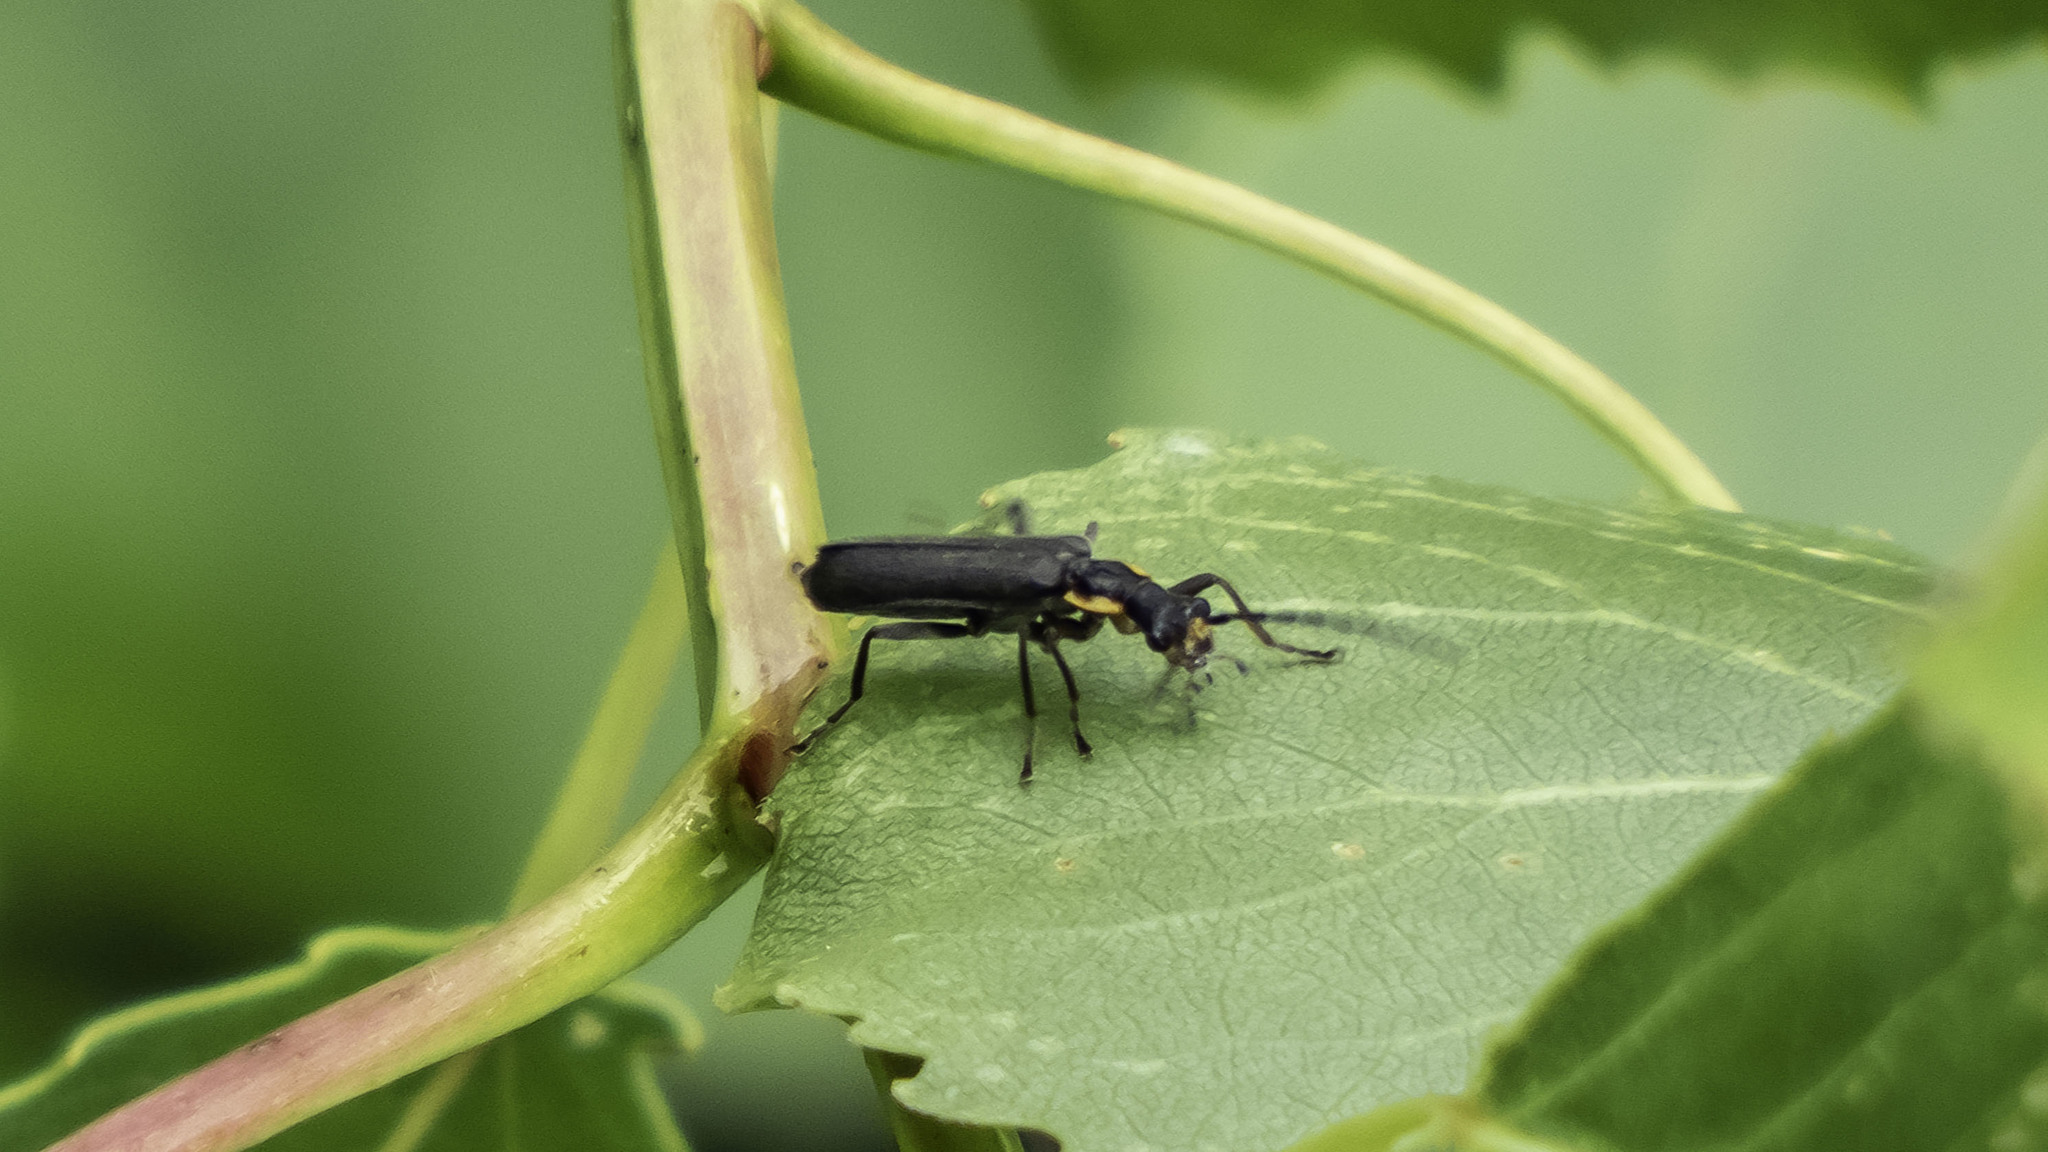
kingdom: Animalia
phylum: Arthropoda
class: Insecta
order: Coleoptera
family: Cantharidae
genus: Podabrus
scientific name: Podabrus rugosulus
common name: Wrinkled soldier beetle
